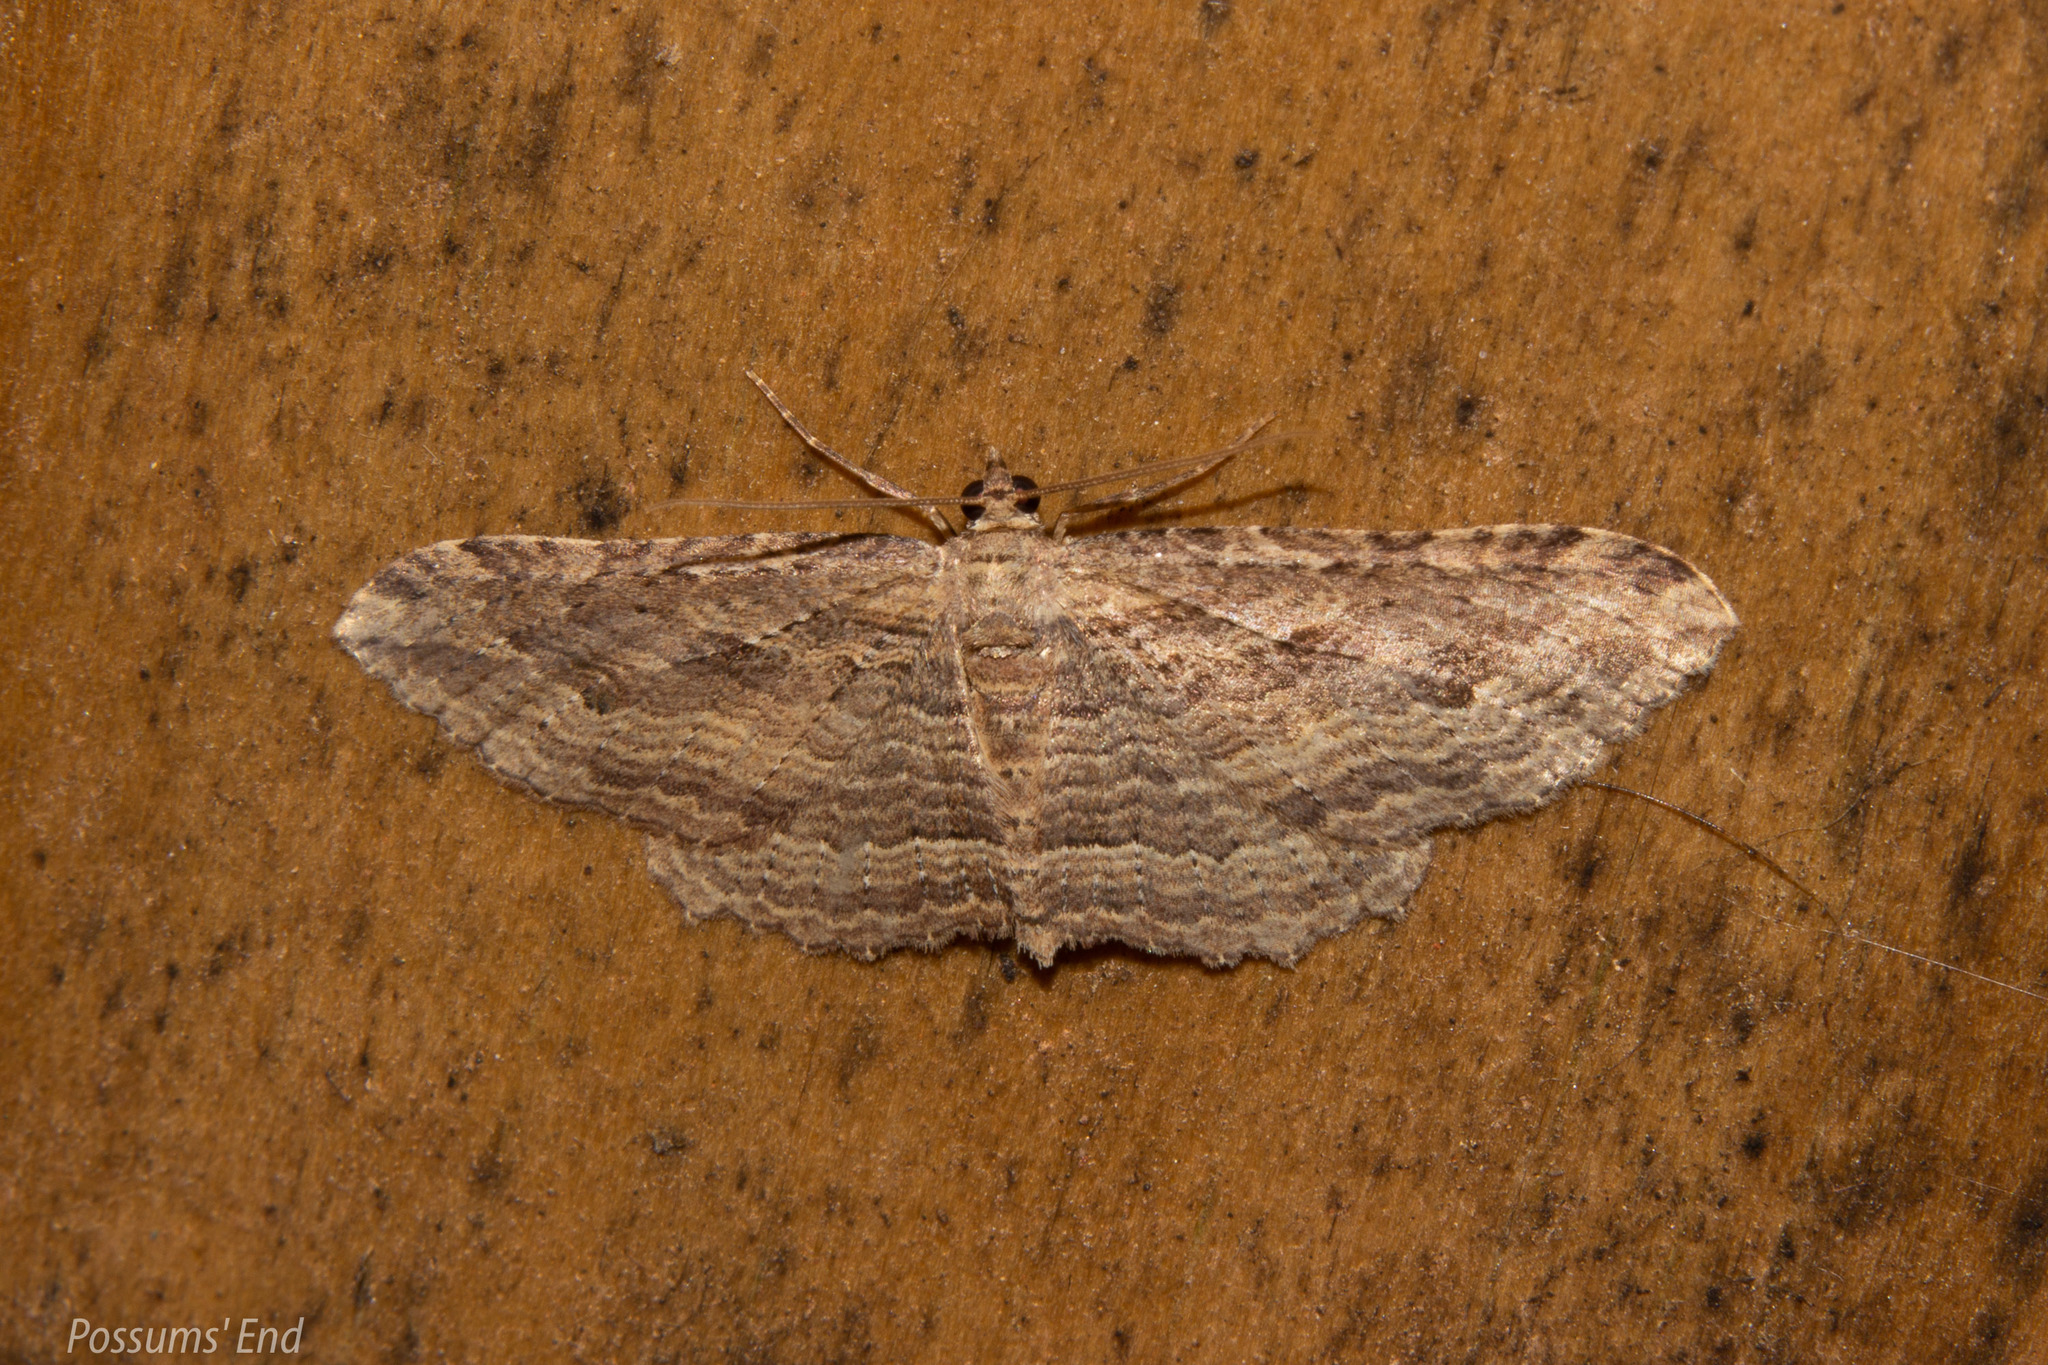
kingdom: Animalia
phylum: Arthropoda
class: Insecta
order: Lepidoptera
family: Geometridae
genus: Austrocidaria
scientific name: Austrocidaria gobiata
